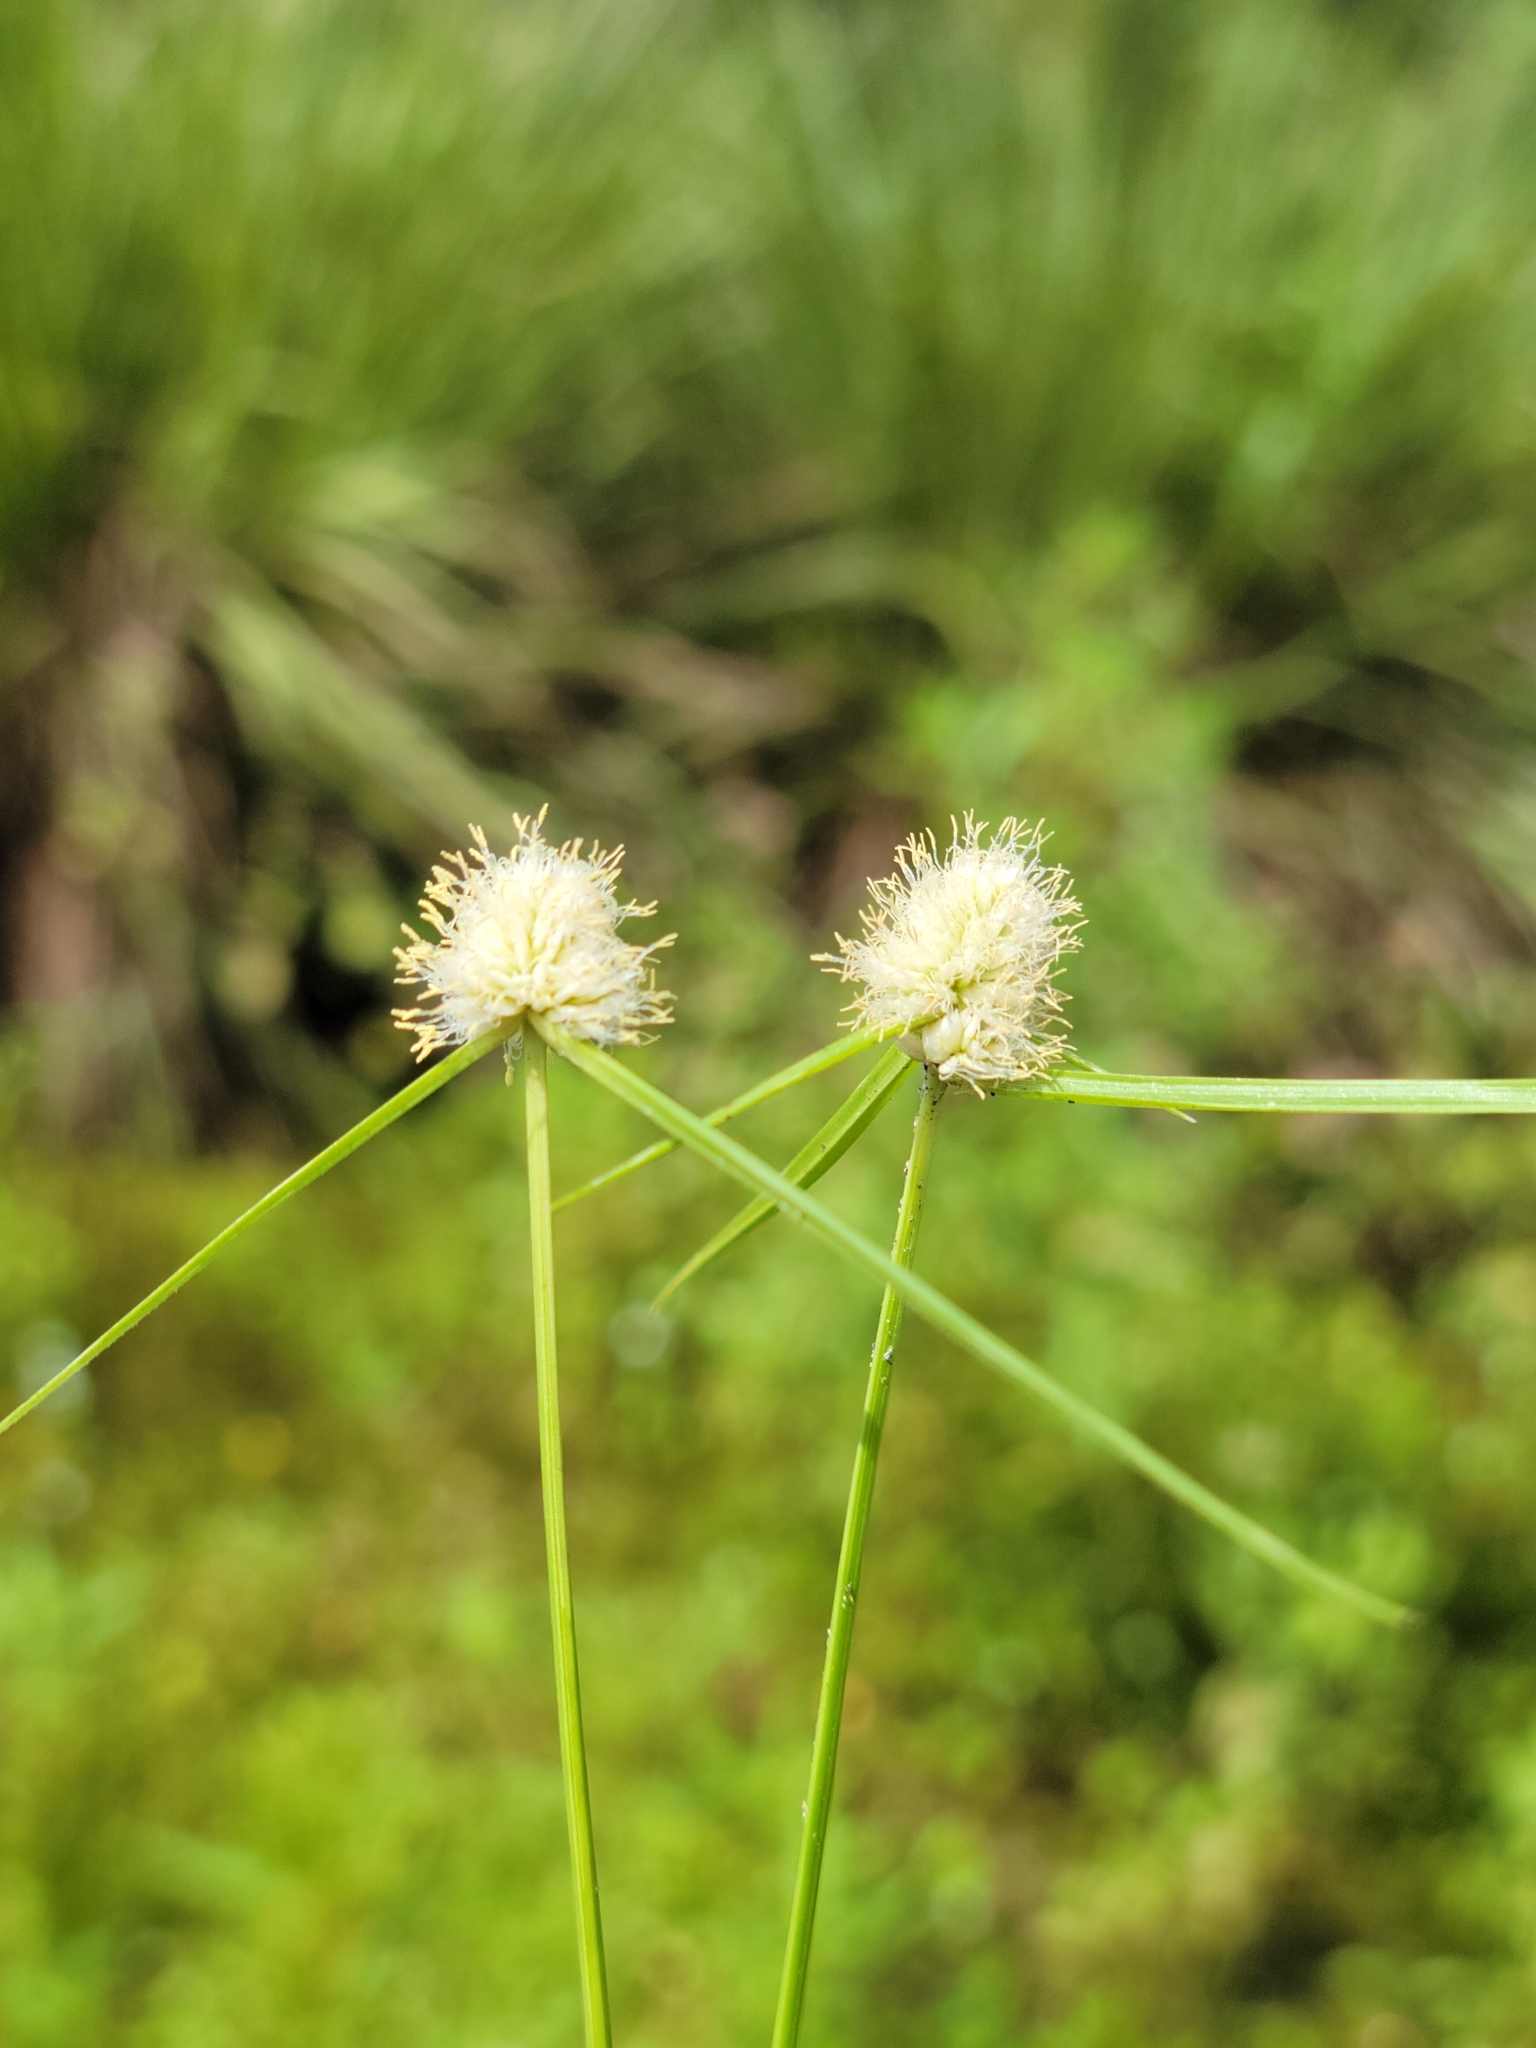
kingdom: Plantae
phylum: Tracheophyta
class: Liliopsida
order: Poales
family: Cyperaceae
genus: Cyperus
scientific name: Cyperus richardii
